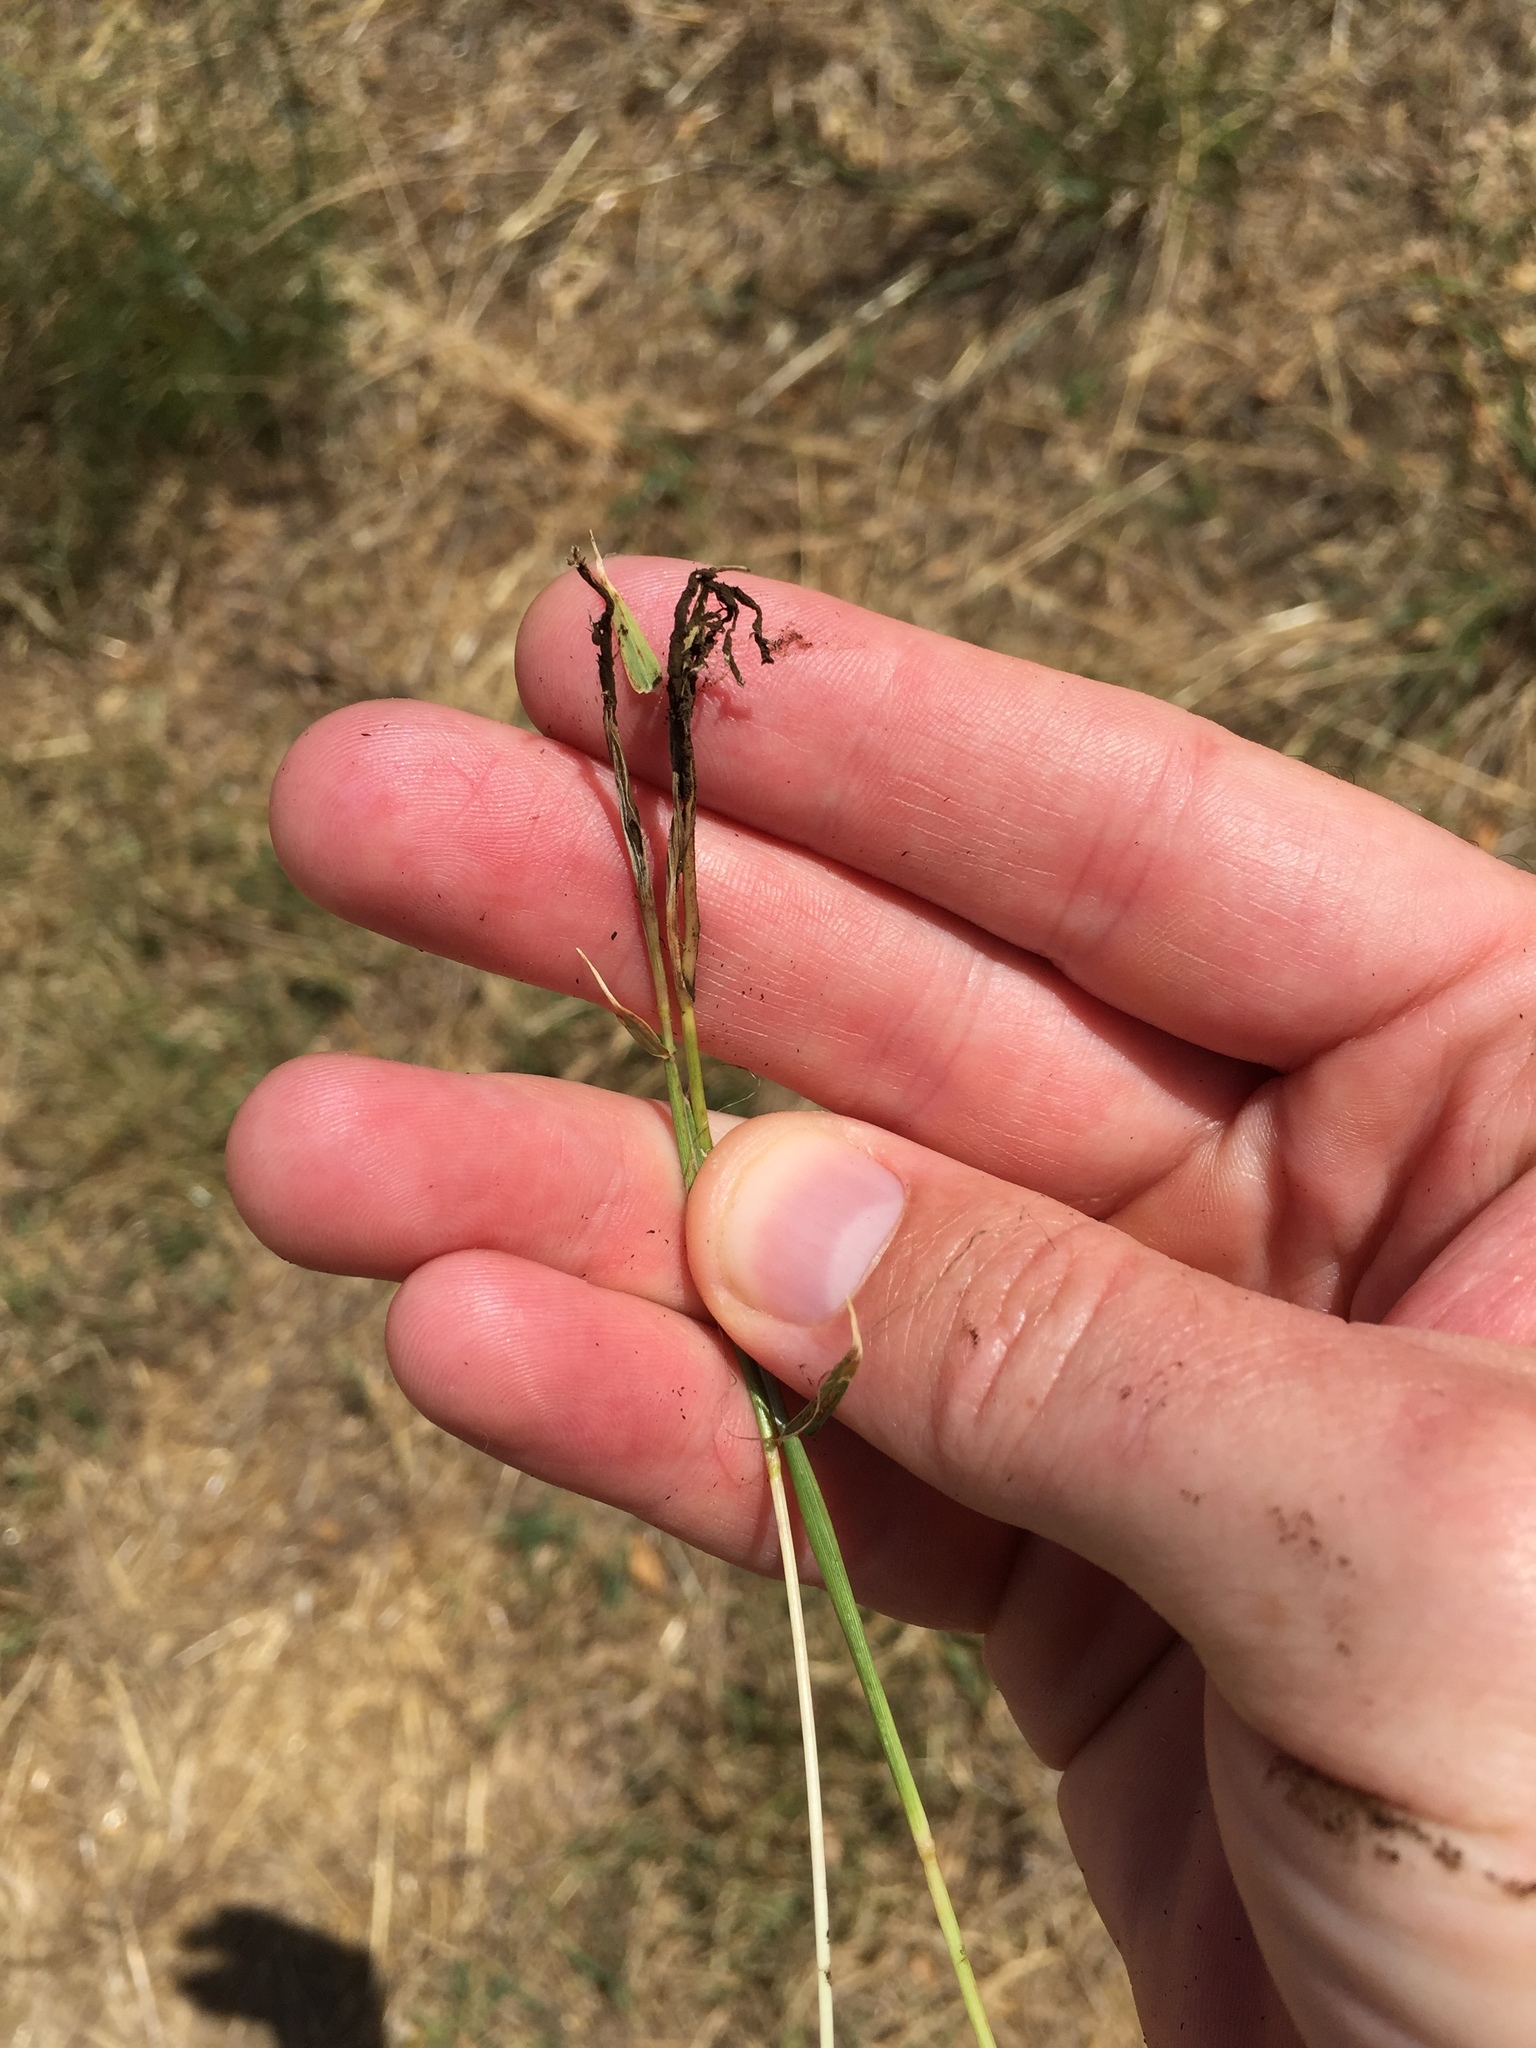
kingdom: Fungi
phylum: Basidiomycota
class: Ustilaginomycetes
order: Ustilaginales
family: Ustilaginaceae
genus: Ustilago
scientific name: Ustilago cynodontis
